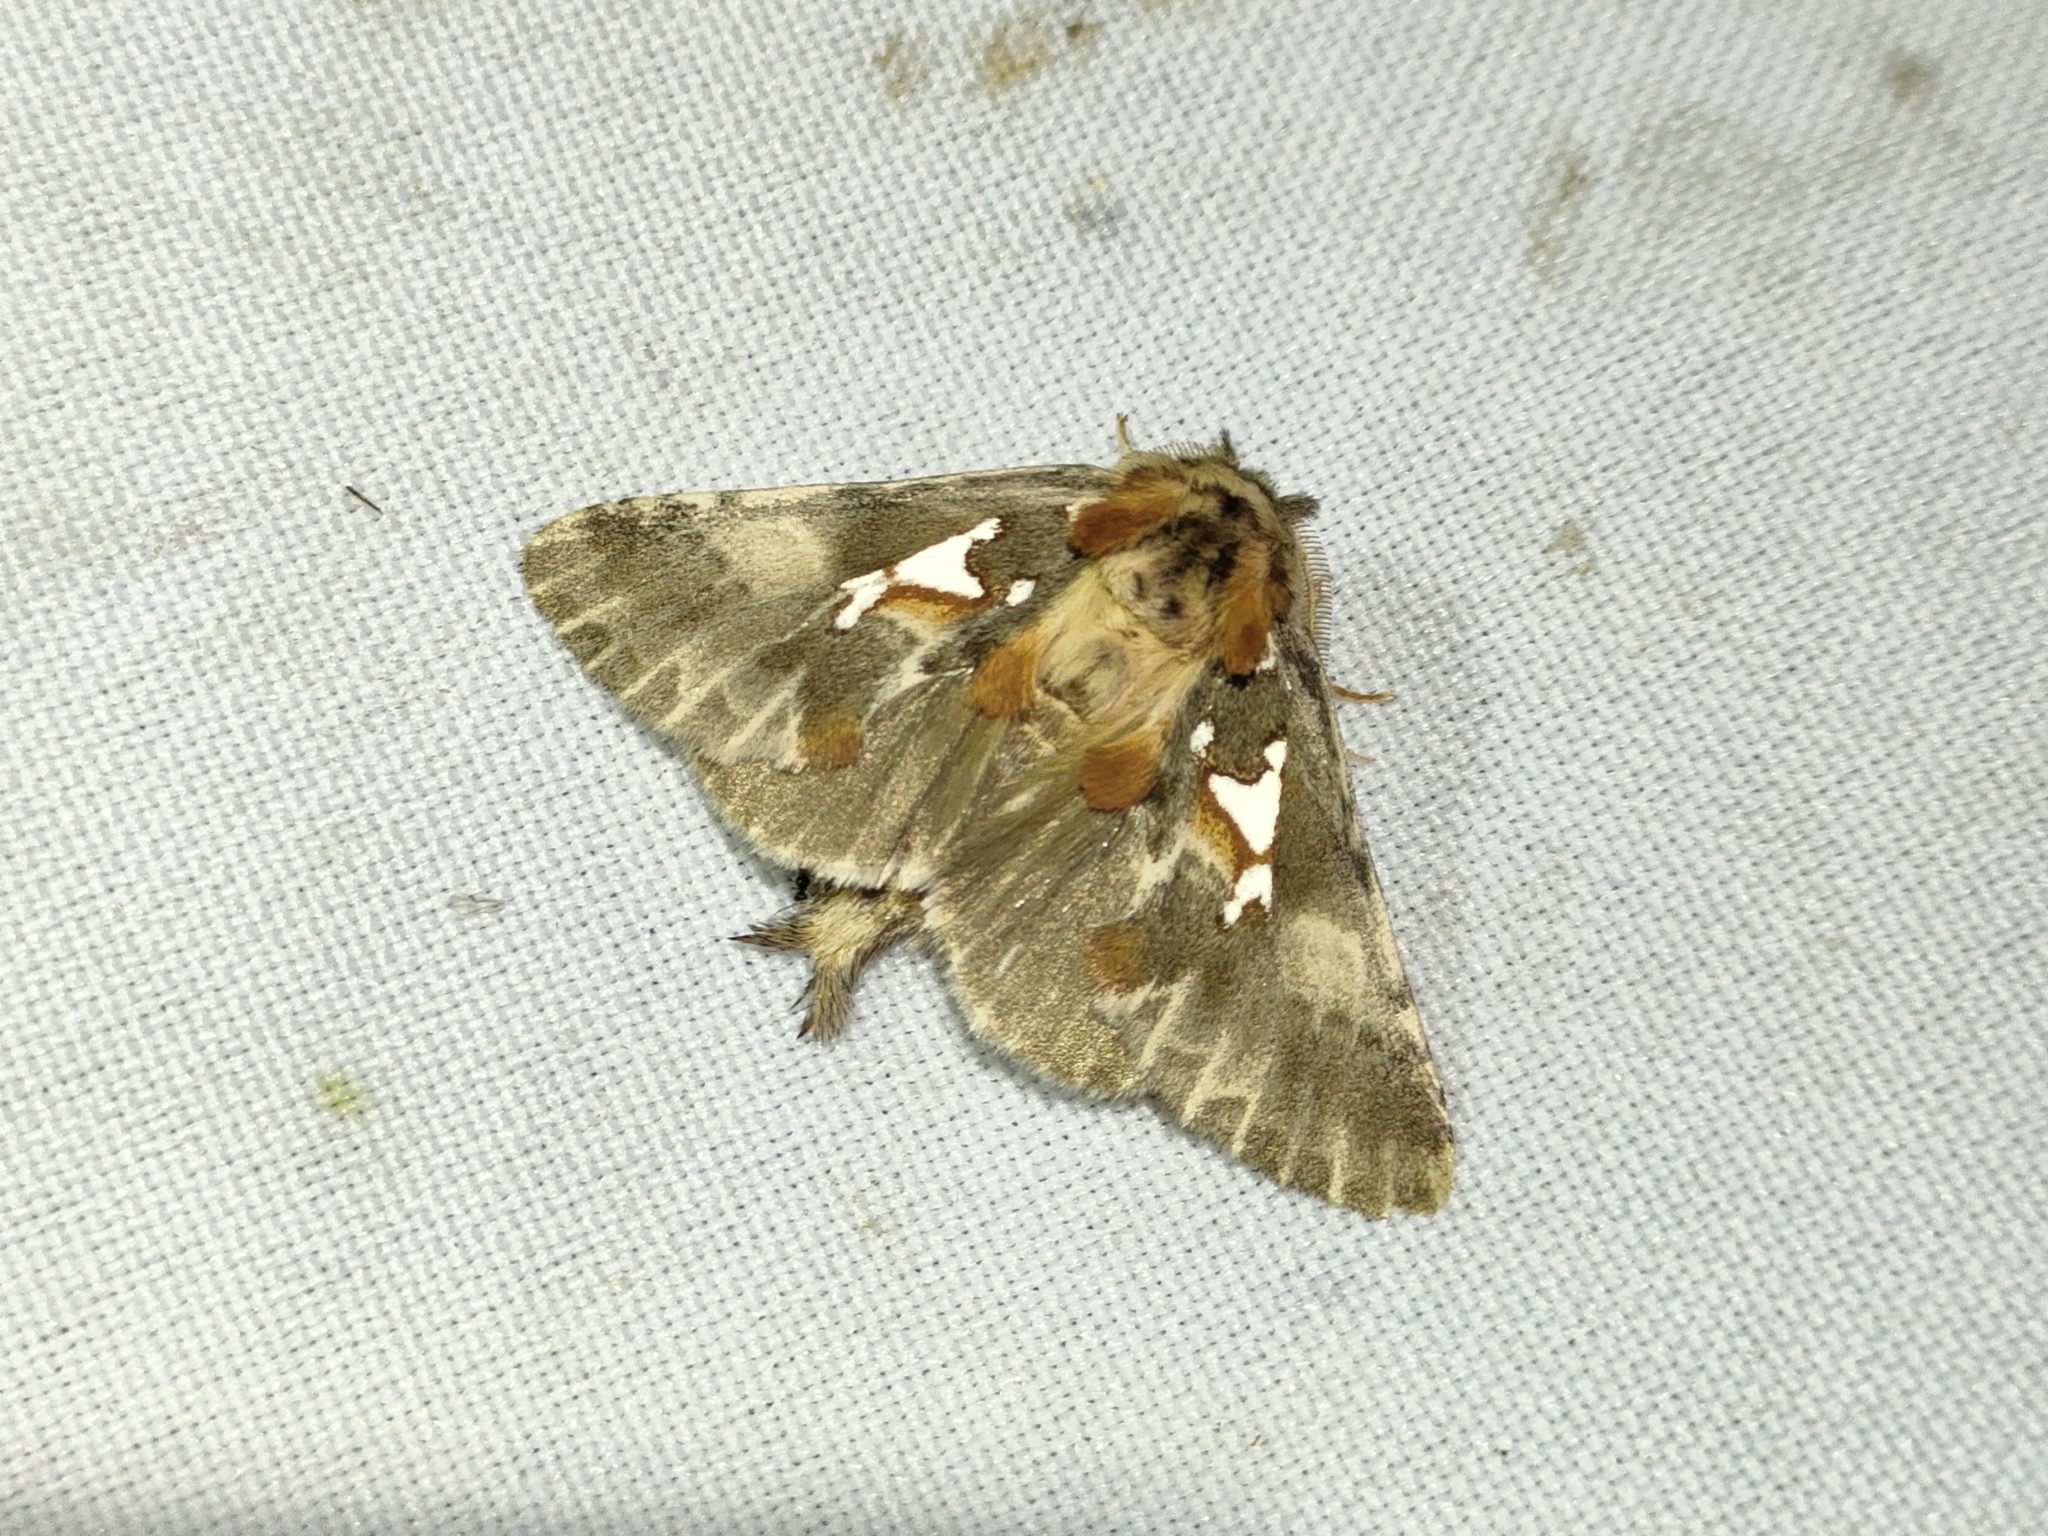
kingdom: Animalia
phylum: Arthropoda
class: Insecta
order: Lepidoptera
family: Notodontidae
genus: Spatalia
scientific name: Spatalia argentina
